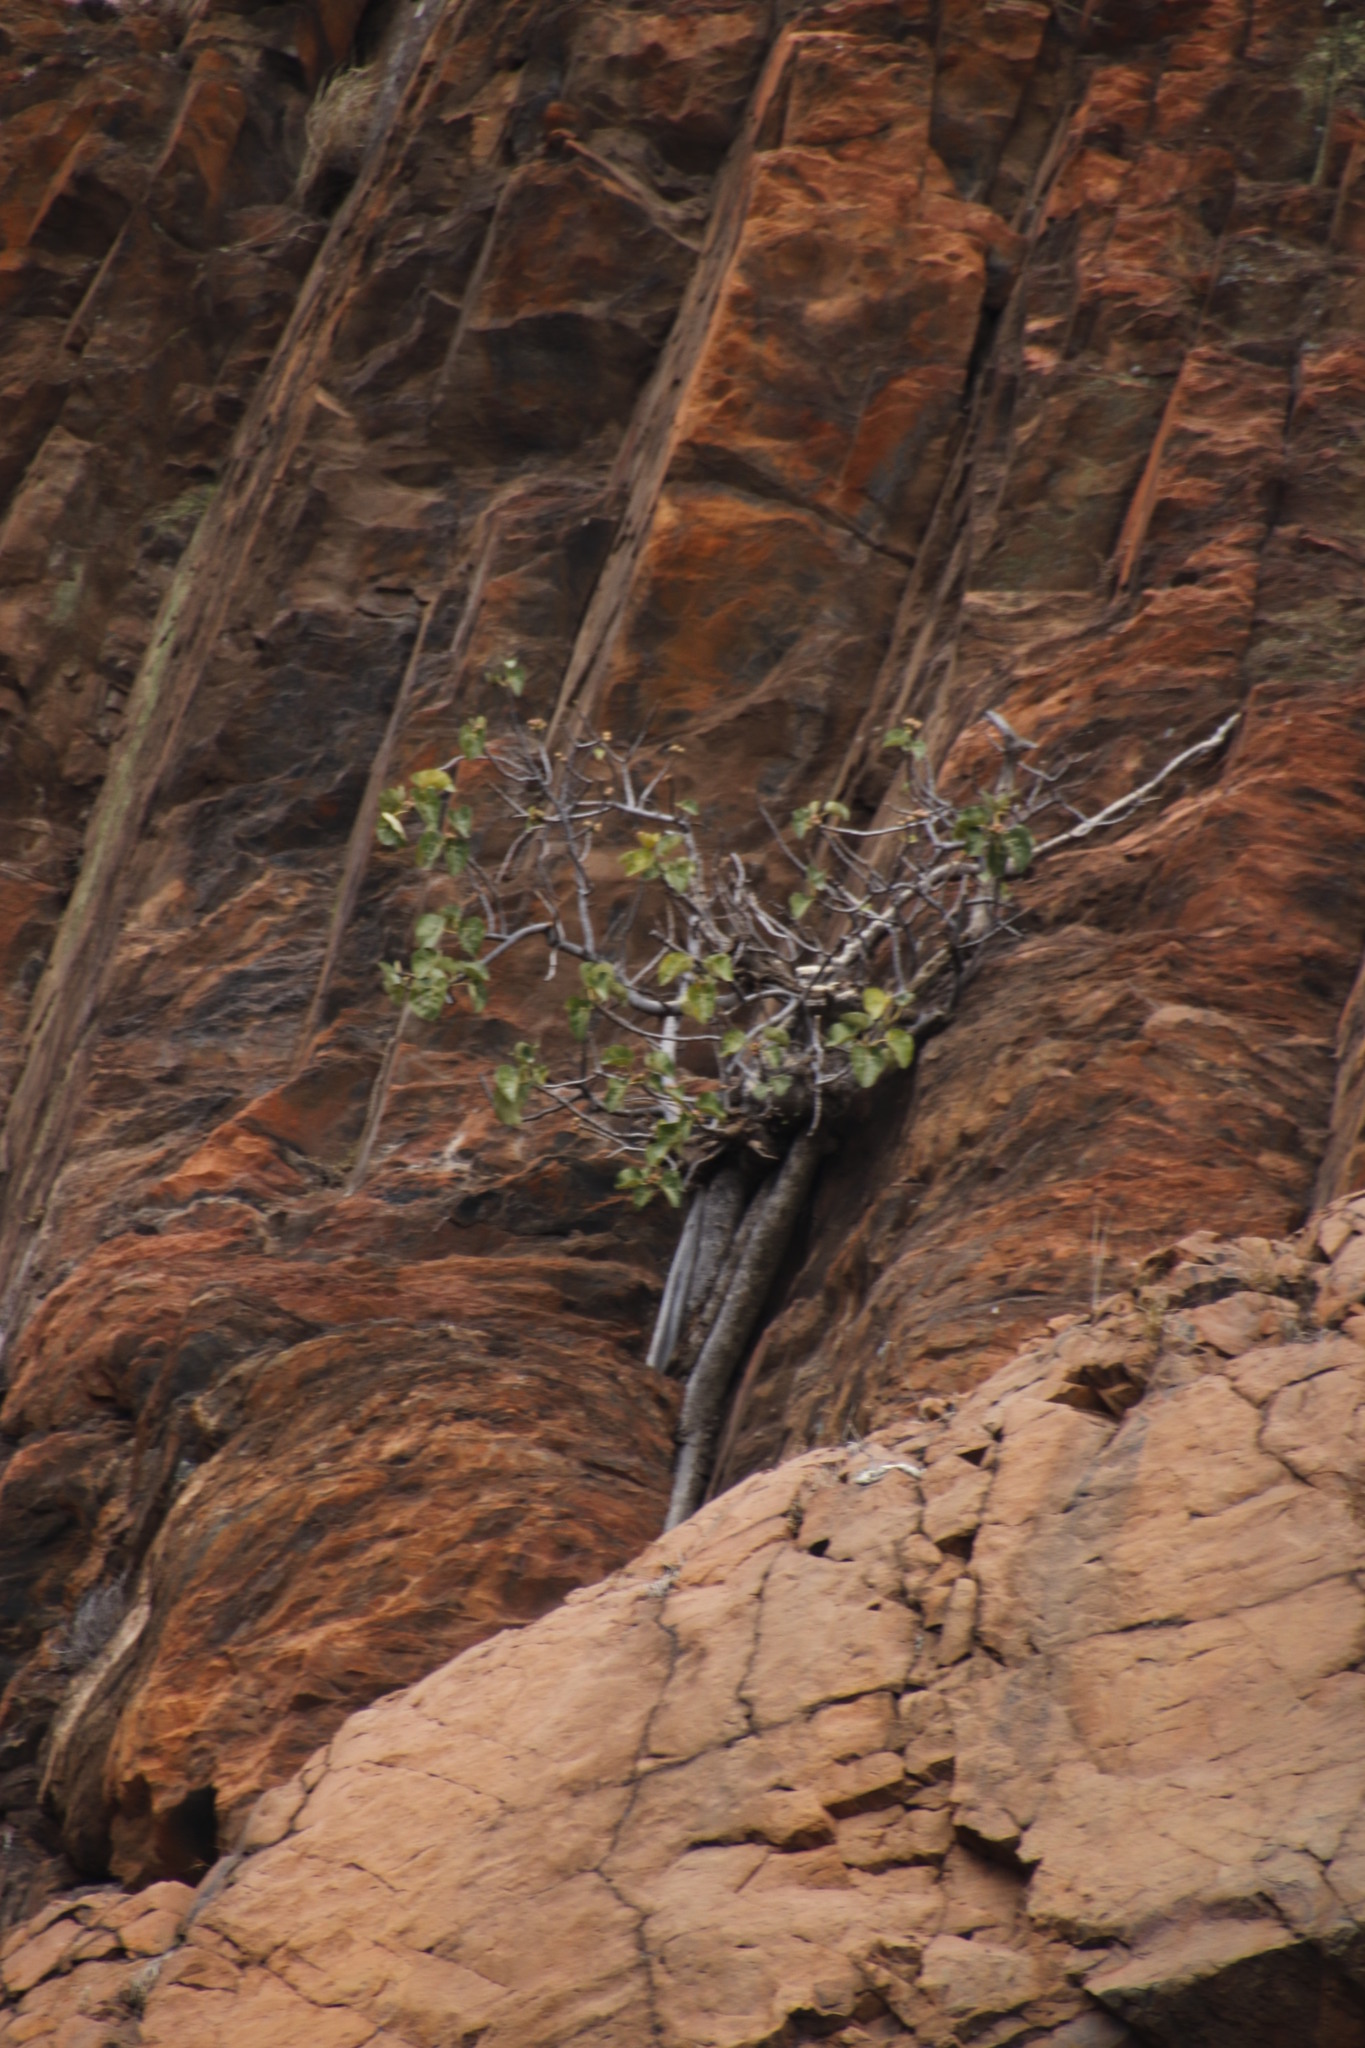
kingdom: Plantae
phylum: Tracheophyta
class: Magnoliopsida
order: Rosales
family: Moraceae
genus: Ficus
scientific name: Ficus abutilifolia
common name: Large-leaved rock fig
